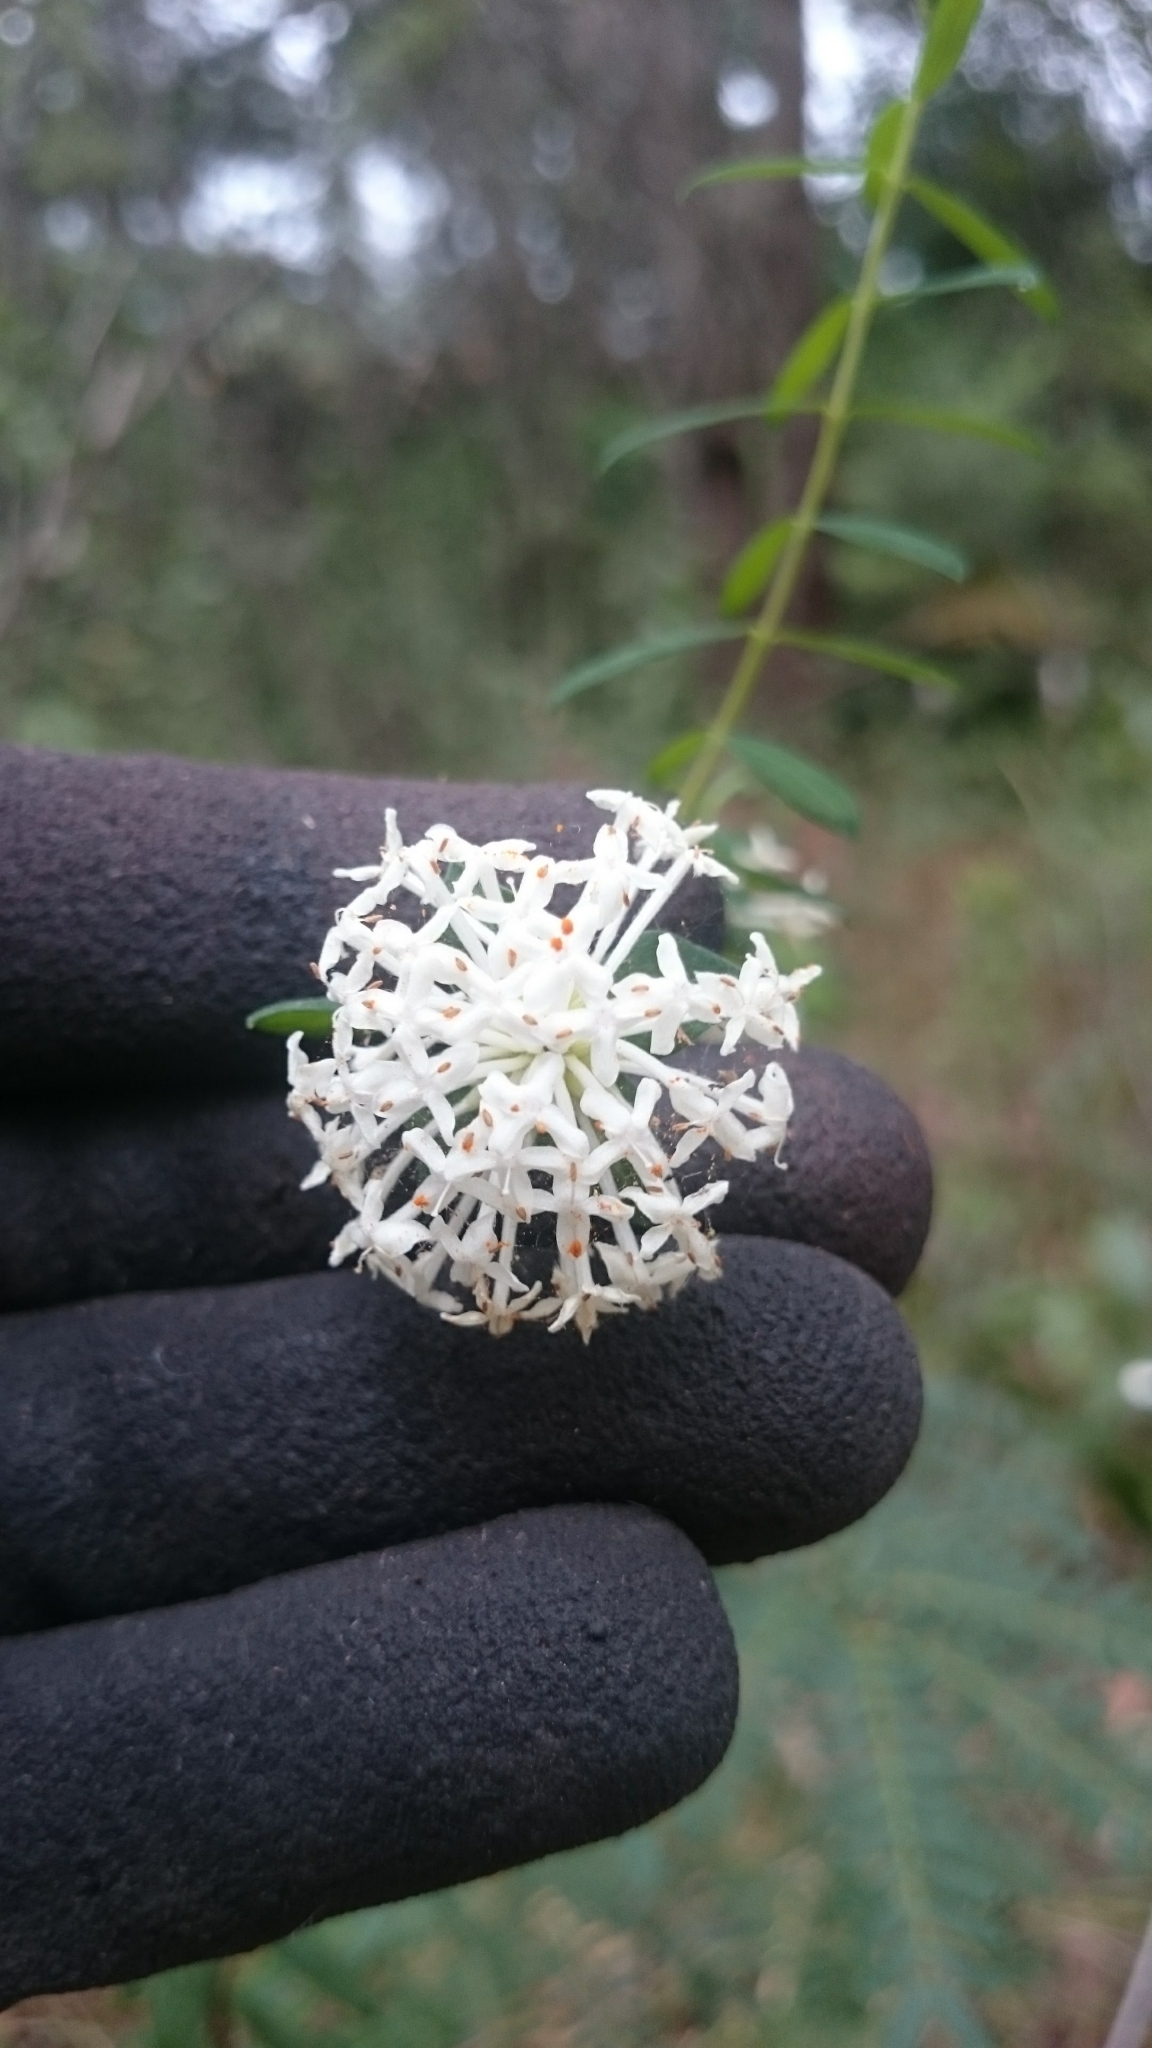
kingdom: Plantae
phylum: Tracheophyta
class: Magnoliopsida
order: Malvales
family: Thymelaeaceae
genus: Pimelea
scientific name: Pimelea linifolia
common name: Queen-of-the-bush
